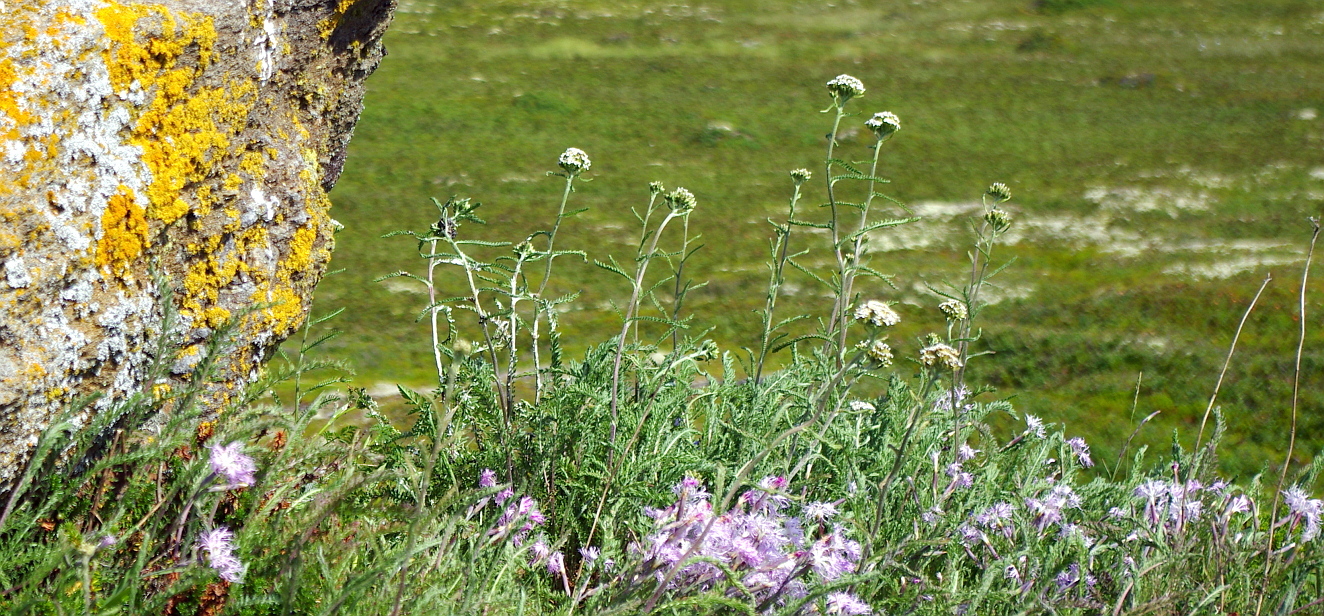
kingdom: Plantae
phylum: Tracheophyta
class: Magnoliopsida
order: Asterales
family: Asteraceae
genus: Achillea
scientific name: Achillea millefolium
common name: Yarrow
